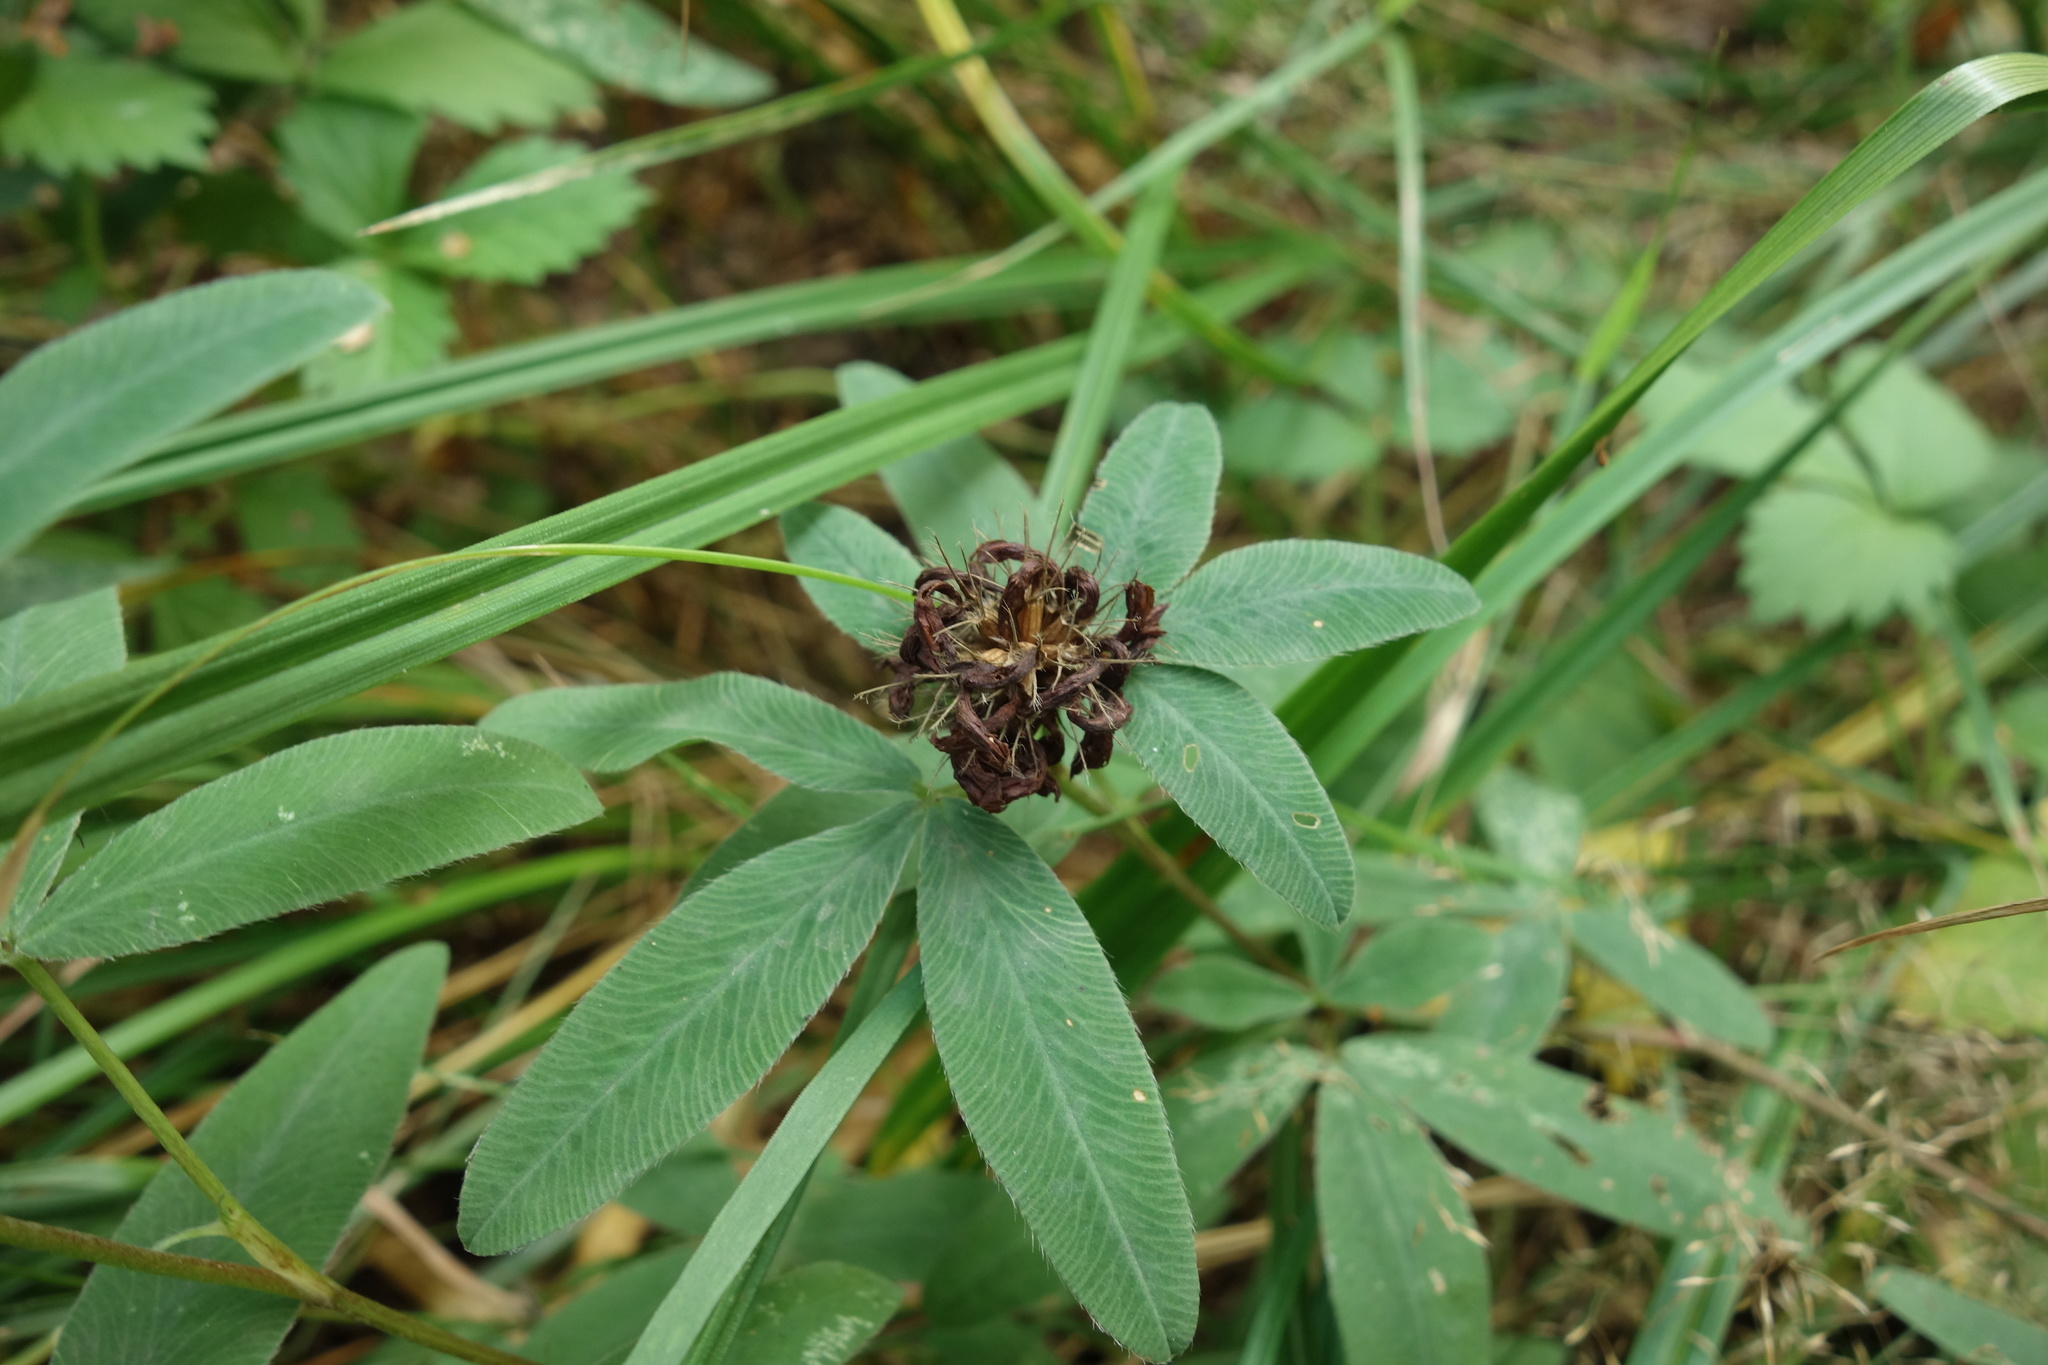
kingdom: Plantae
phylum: Tracheophyta
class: Magnoliopsida
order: Fabales
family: Fabaceae
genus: Trifolium
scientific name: Trifolium medium
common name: Zigzag clover
